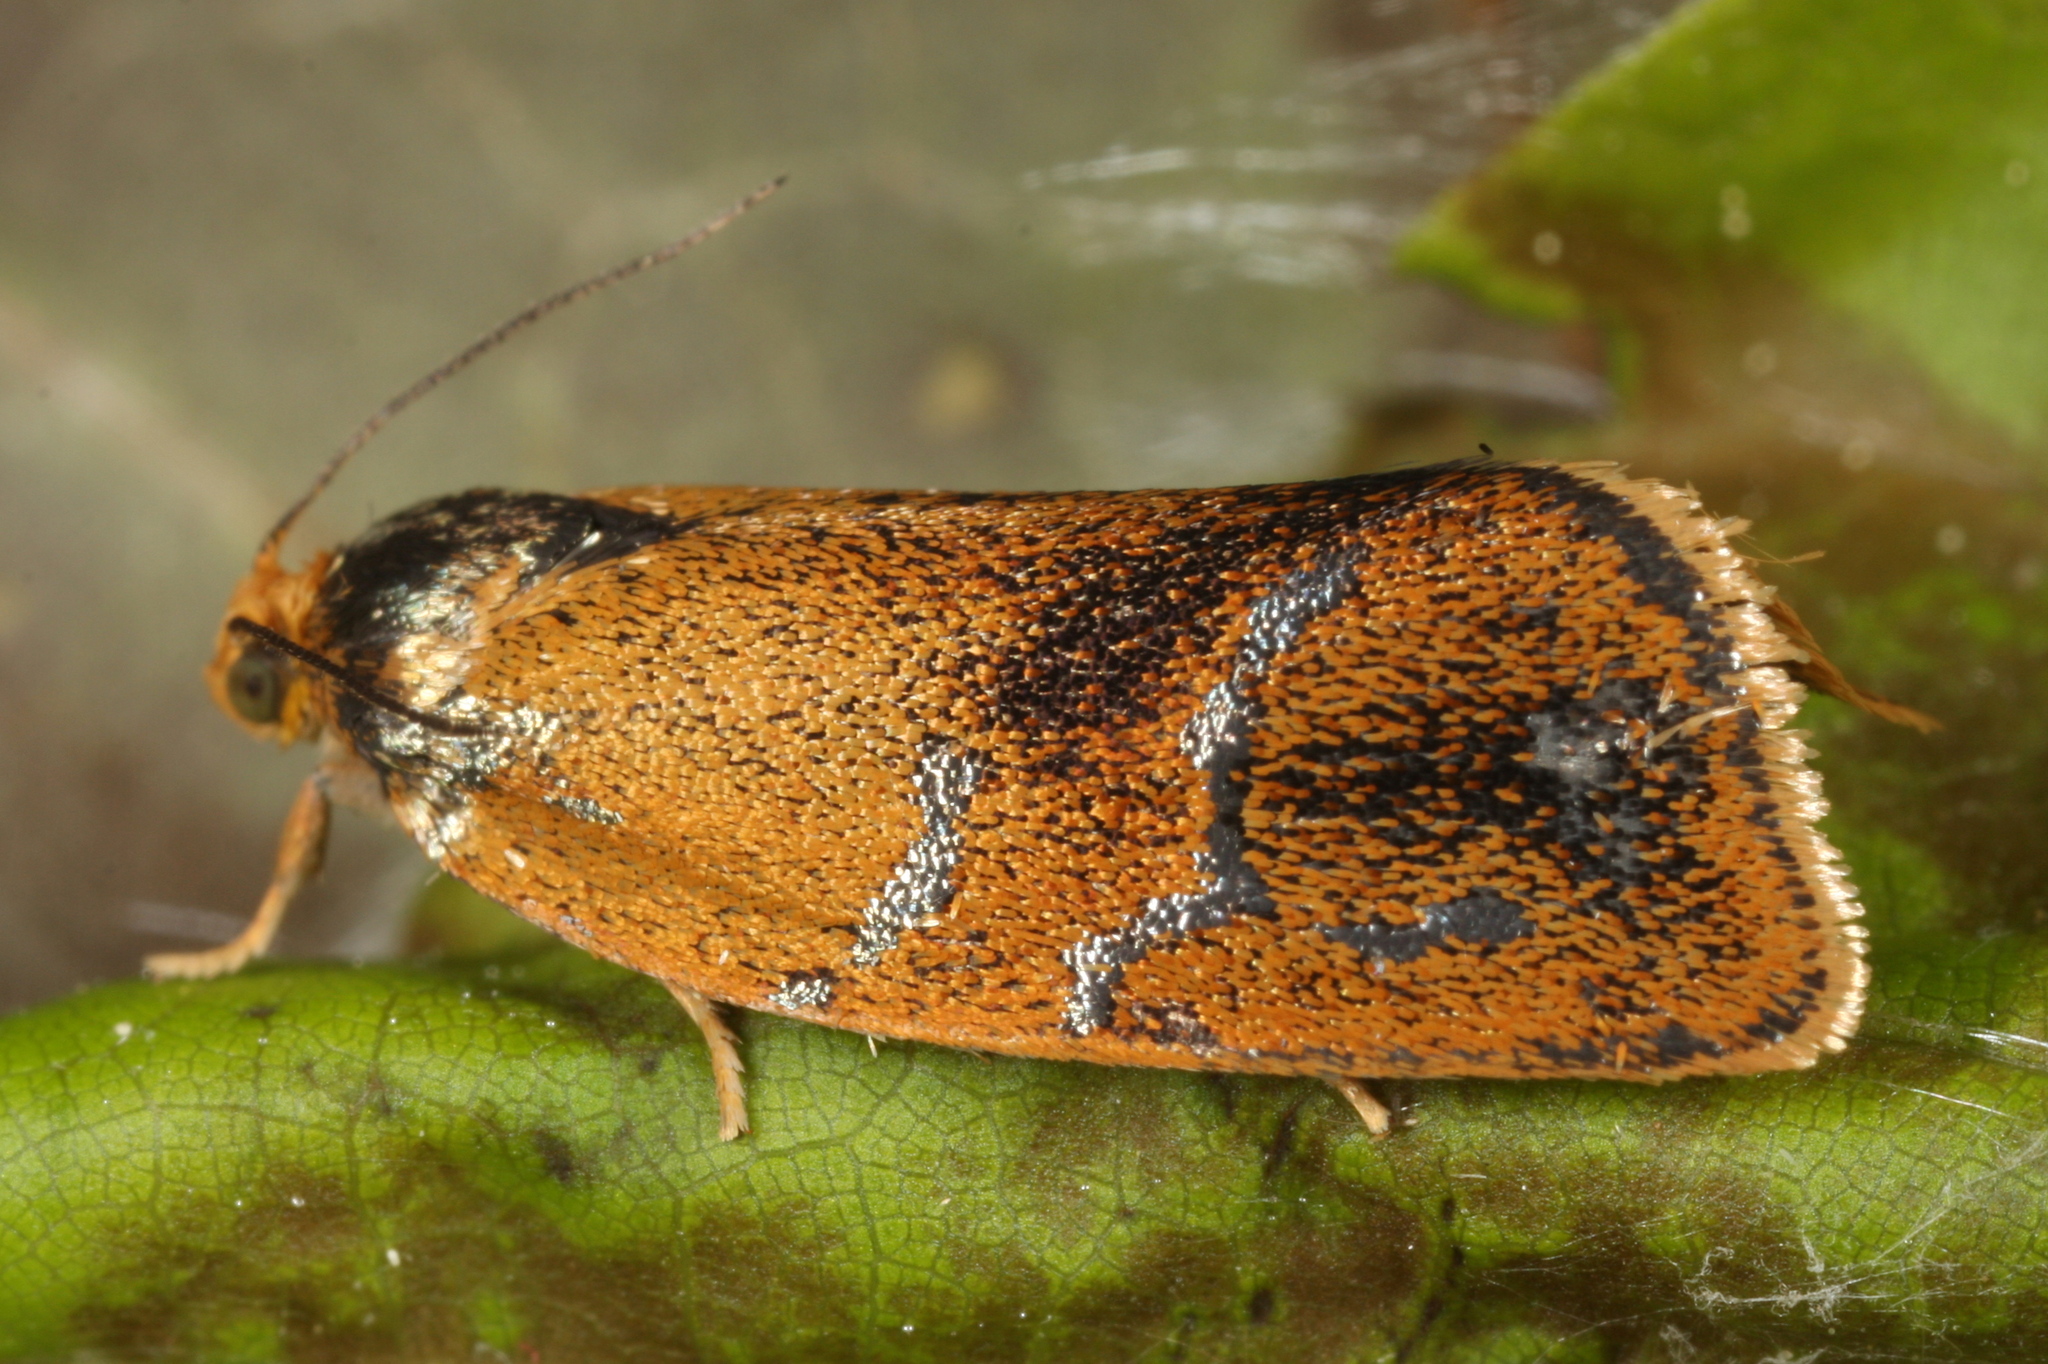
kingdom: Animalia
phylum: Arthropoda
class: Insecta
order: Lepidoptera
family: Tortricidae
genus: Ptycholoma
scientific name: Ptycholoma lecheana
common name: Leches twist moth
